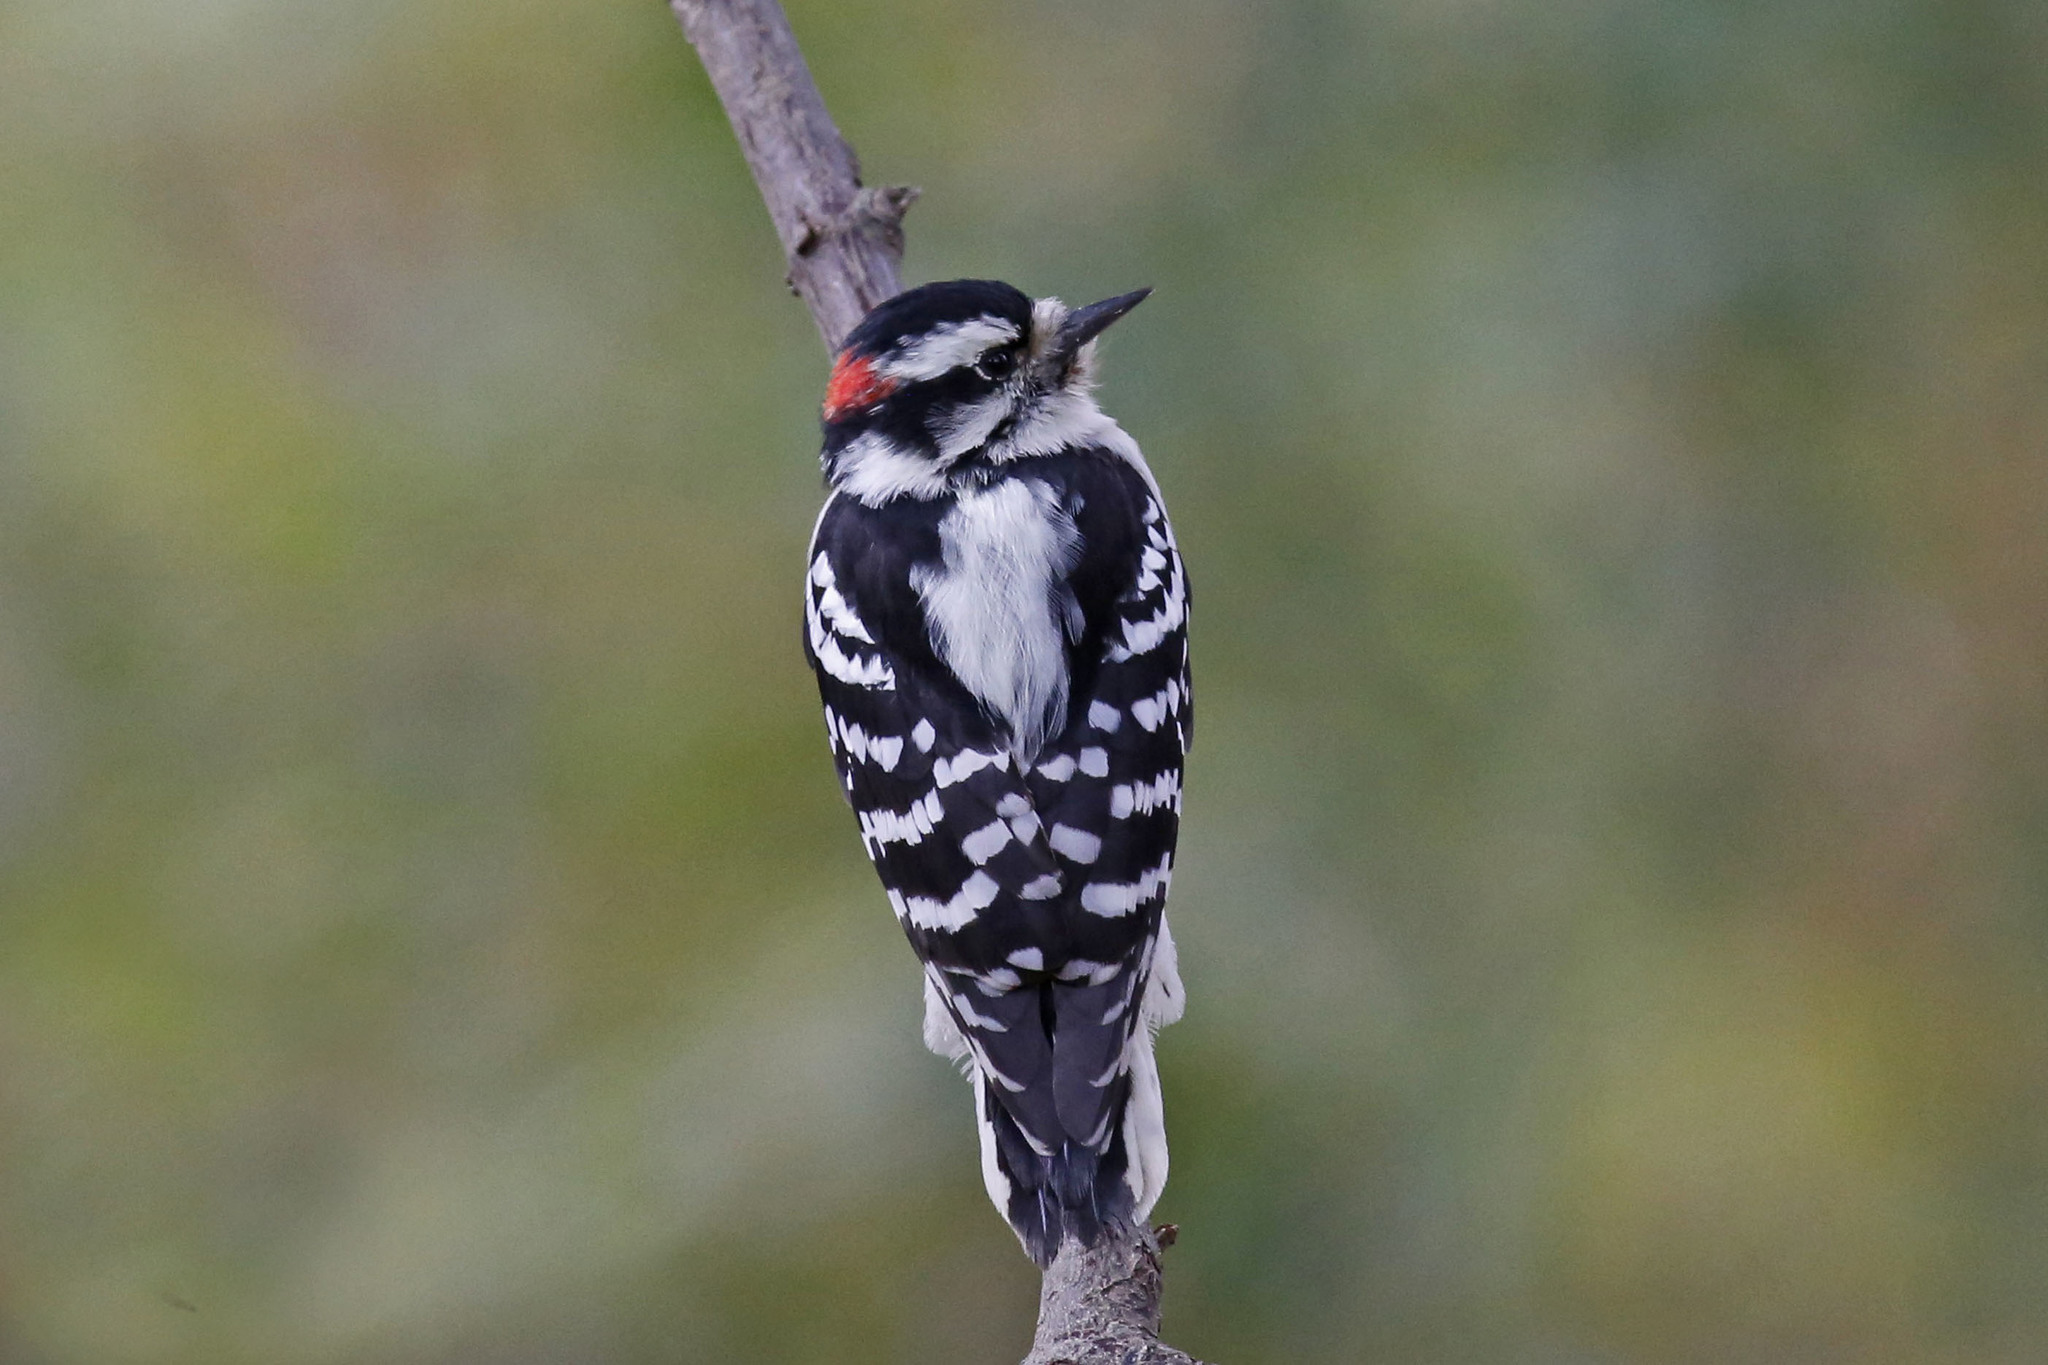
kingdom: Animalia
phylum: Chordata
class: Aves
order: Piciformes
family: Picidae
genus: Dryobates
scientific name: Dryobates pubescens
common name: Downy woodpecker
